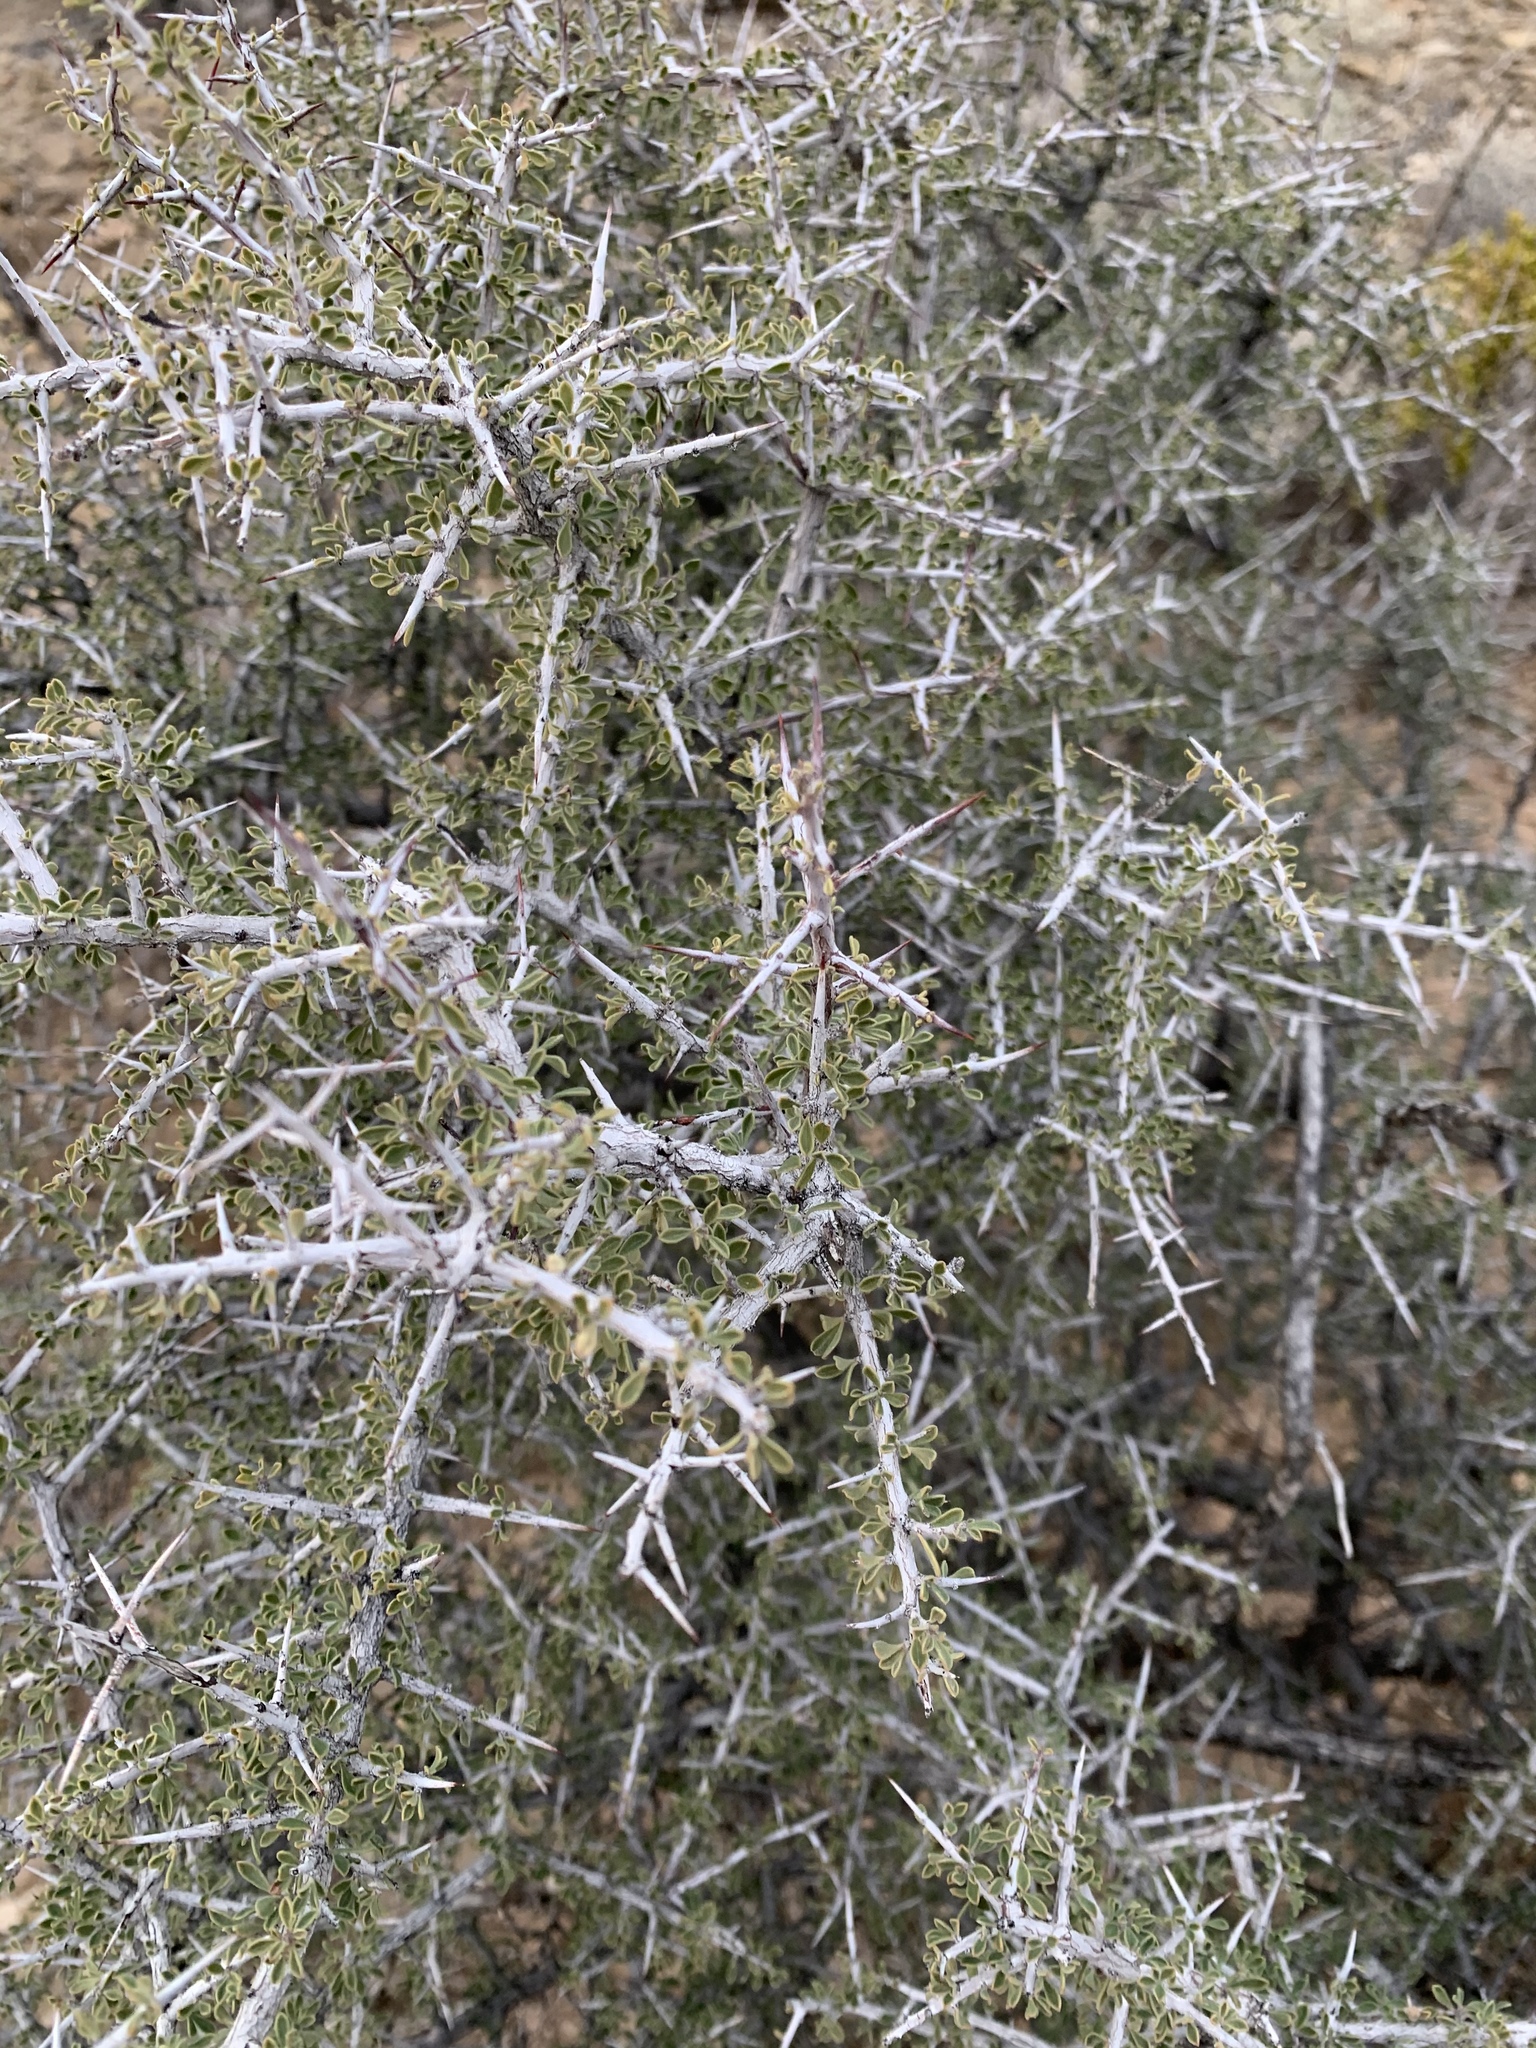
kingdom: Plantae
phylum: Tracheophyta
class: Magnoliopsida
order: Rosales
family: Rhamnaceae
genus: Condalia
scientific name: Condalia warnockii
